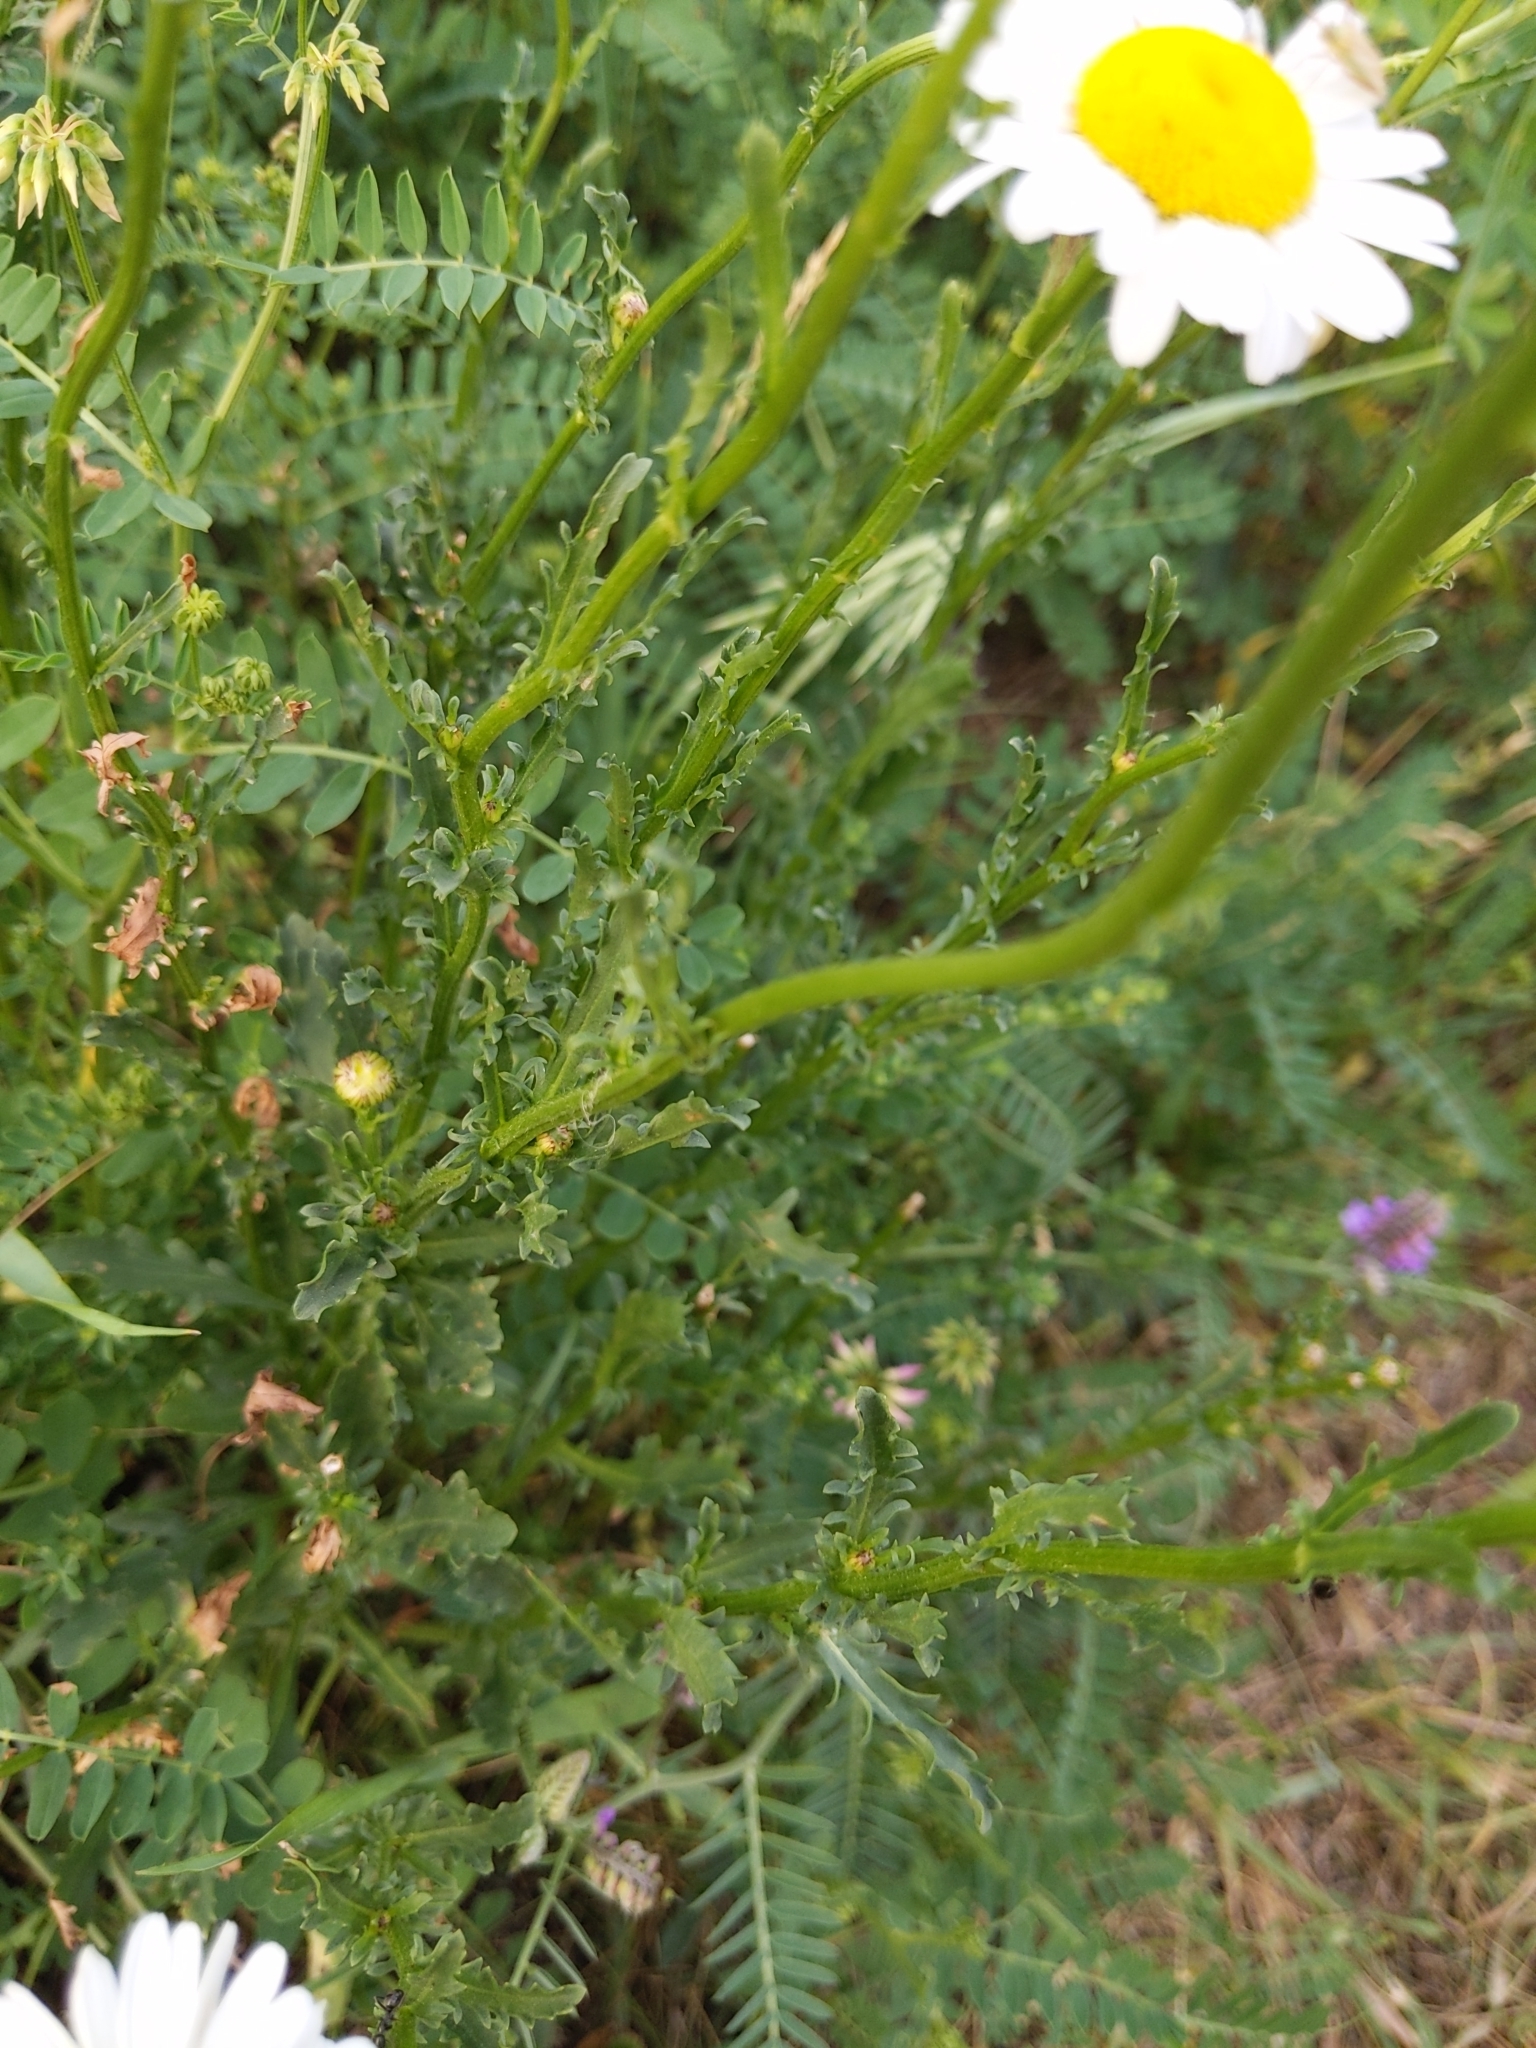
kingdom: Plantae
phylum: Tracheophyta
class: Magnoliopsida
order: Asterales
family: Asteraceae
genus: Leucanthemum
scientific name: Leucanthemum vulgare
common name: Oxeye daisy
